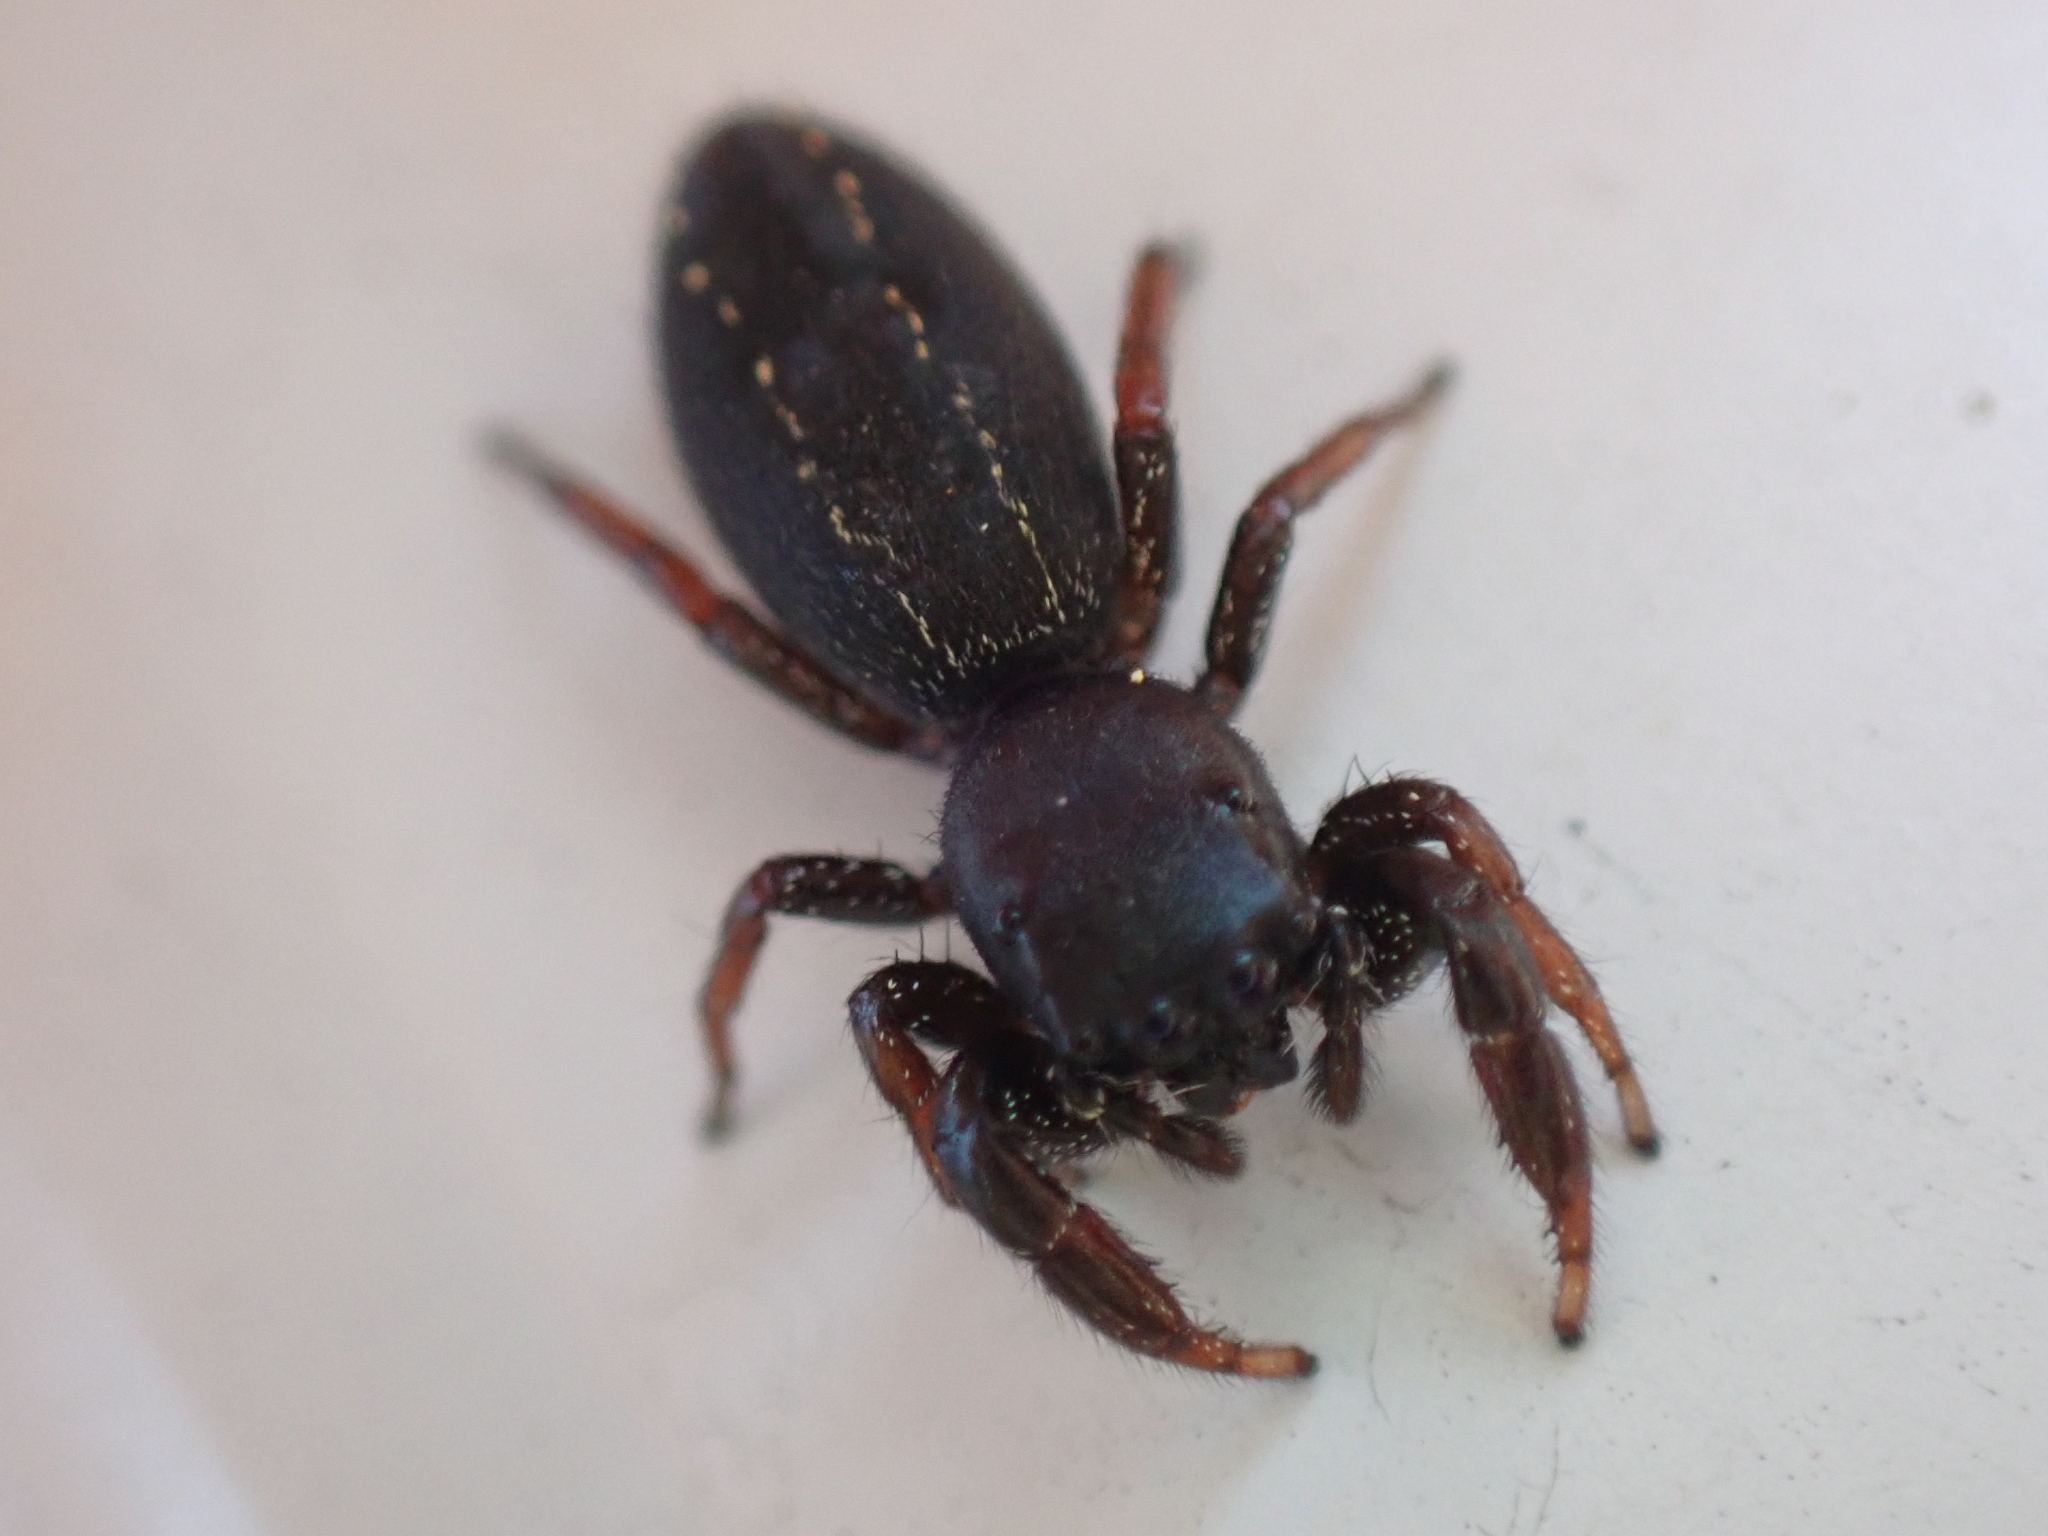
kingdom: Animalia
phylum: Arthropoda
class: Arachnida
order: Araneae
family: Salticidae
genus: Metacyrba
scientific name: Metacyrba taeniola
